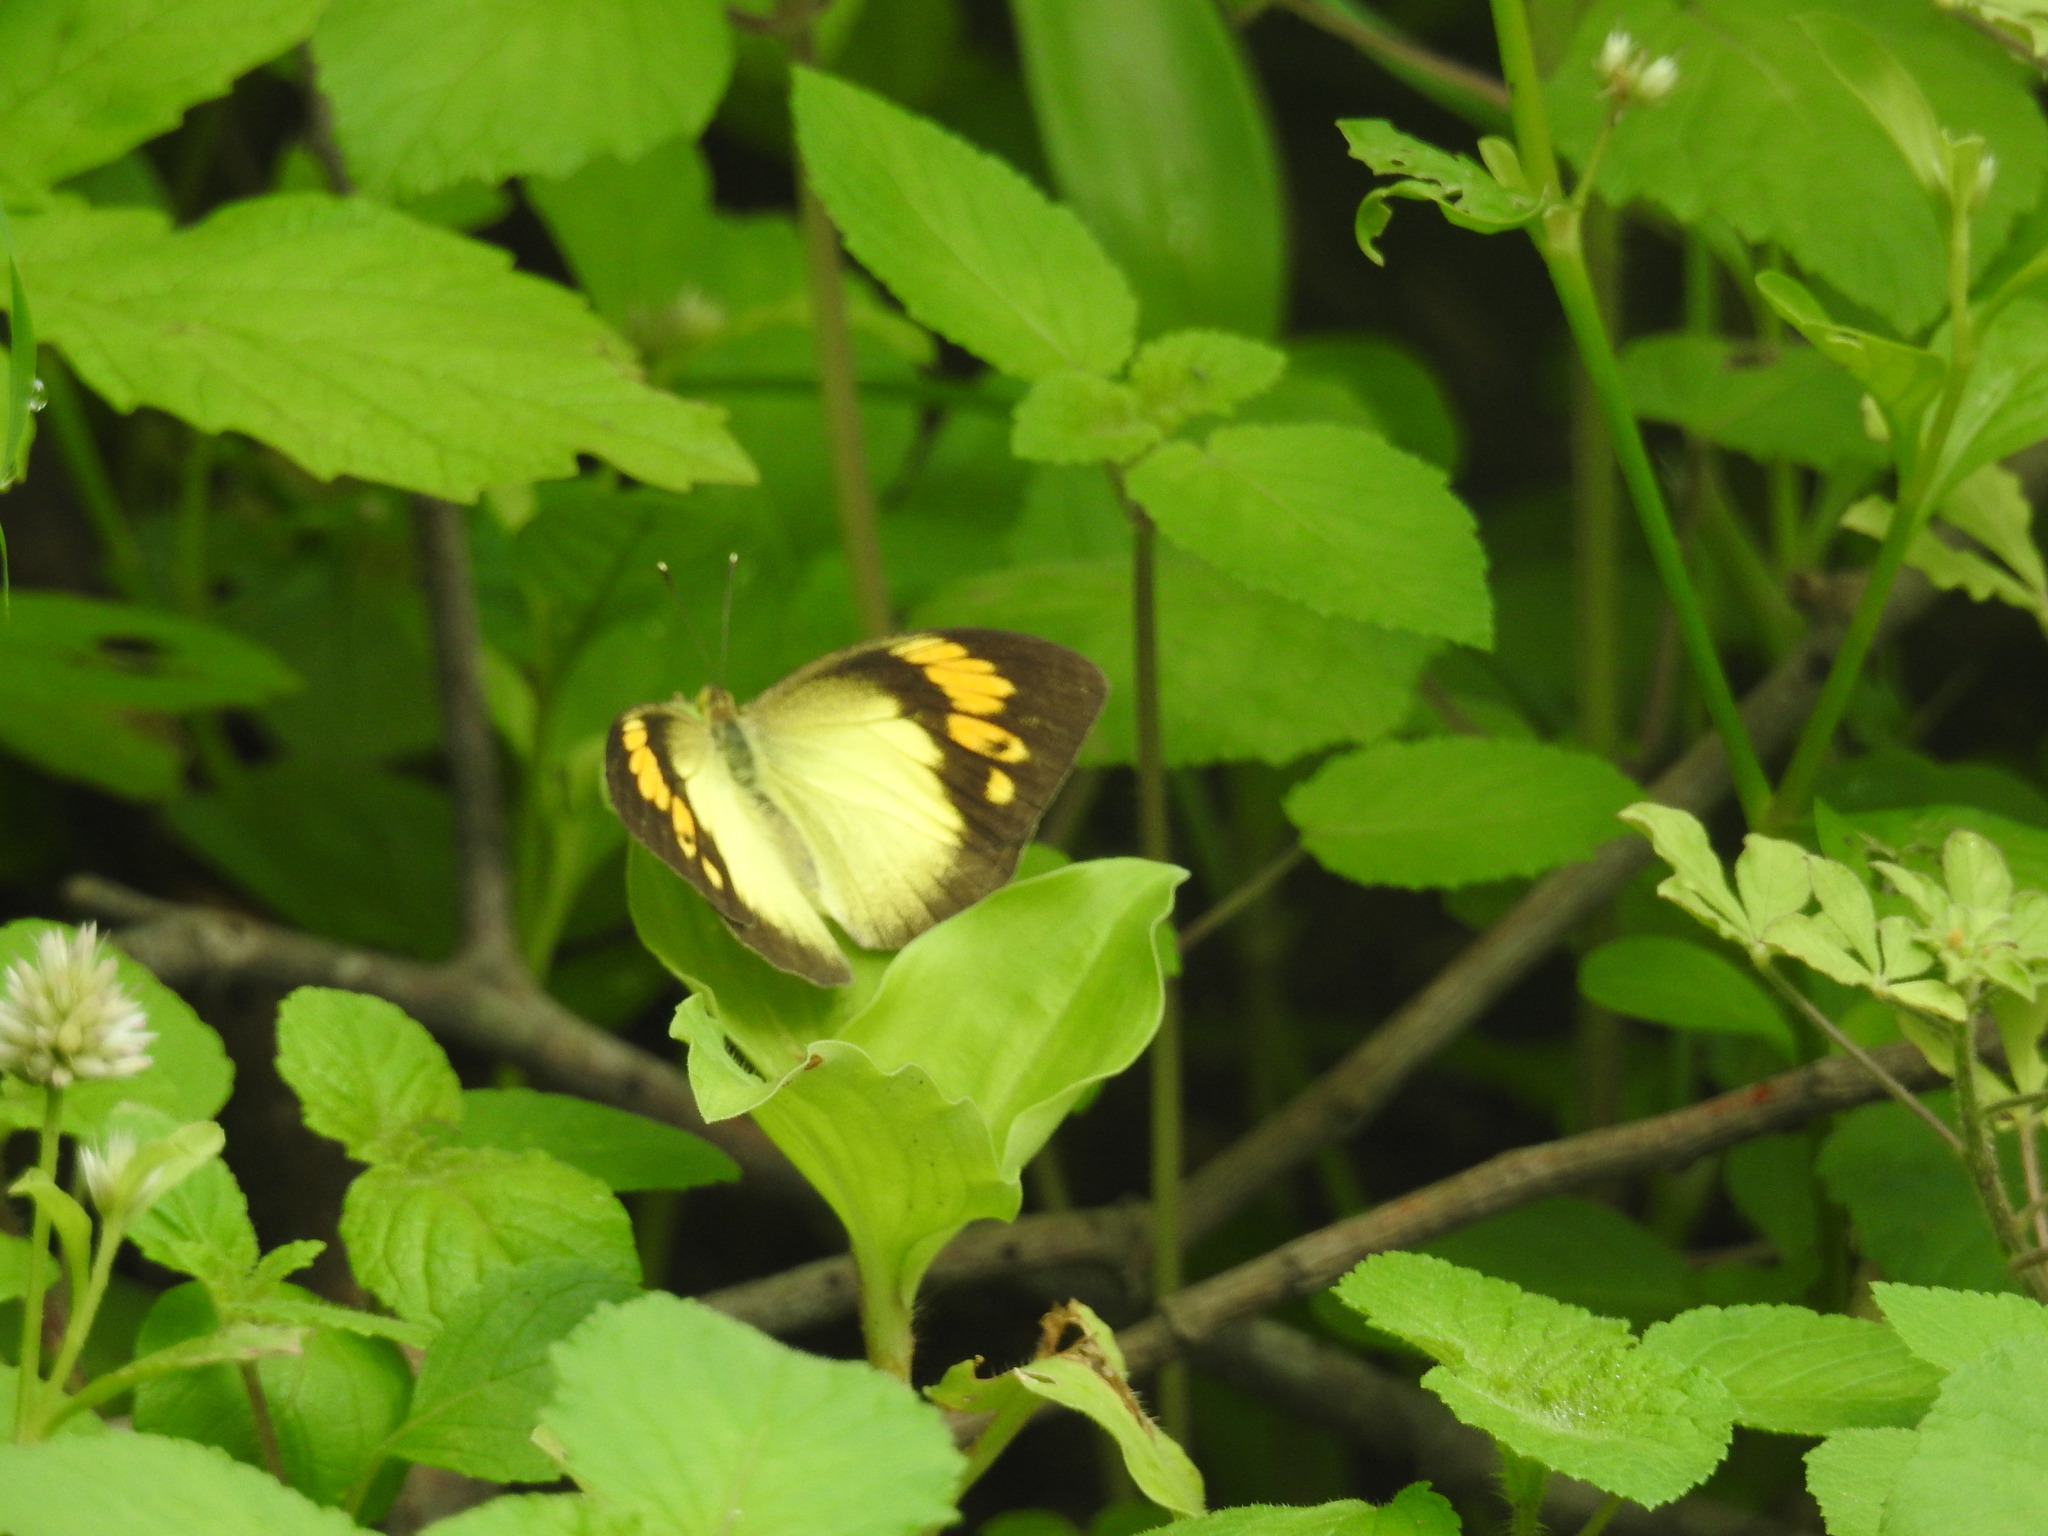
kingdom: Animalia
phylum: Arthropoda
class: Insecta
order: Lepidoptera
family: Pieridae
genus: Ixias
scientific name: Ixias pyrene
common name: Yellow orange tip
